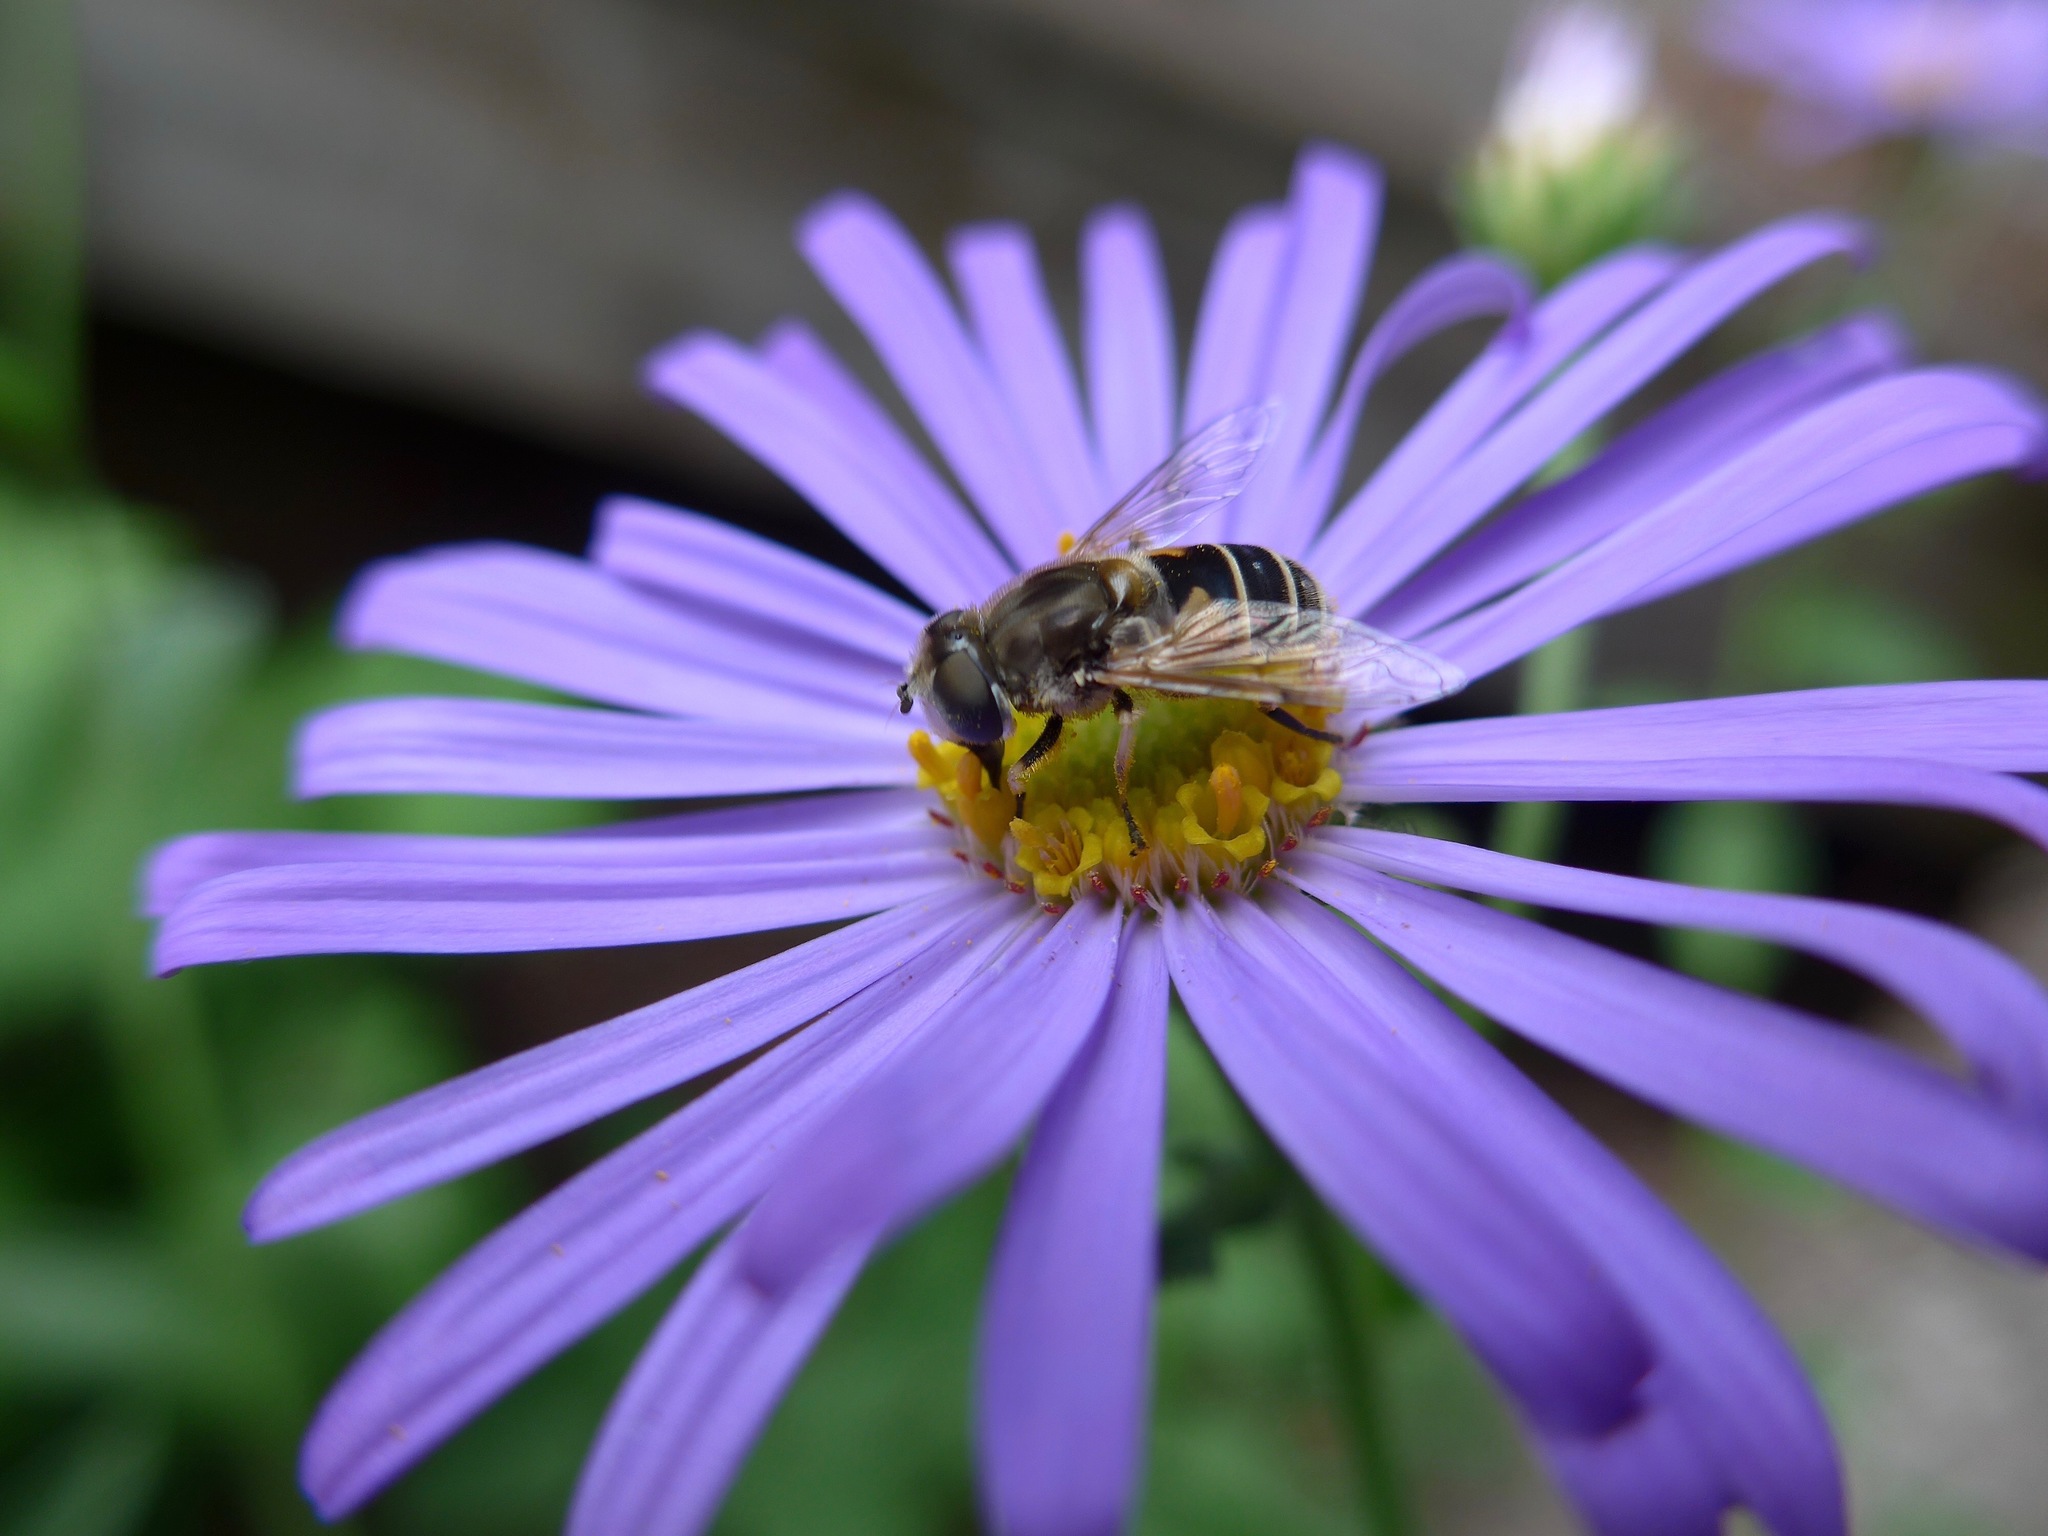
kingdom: Animalia
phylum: Arthropoda
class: Insecta
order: Diptera
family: Syrphidae
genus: Eristalis
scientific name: Eristalis arbustorum
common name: Hover fly
